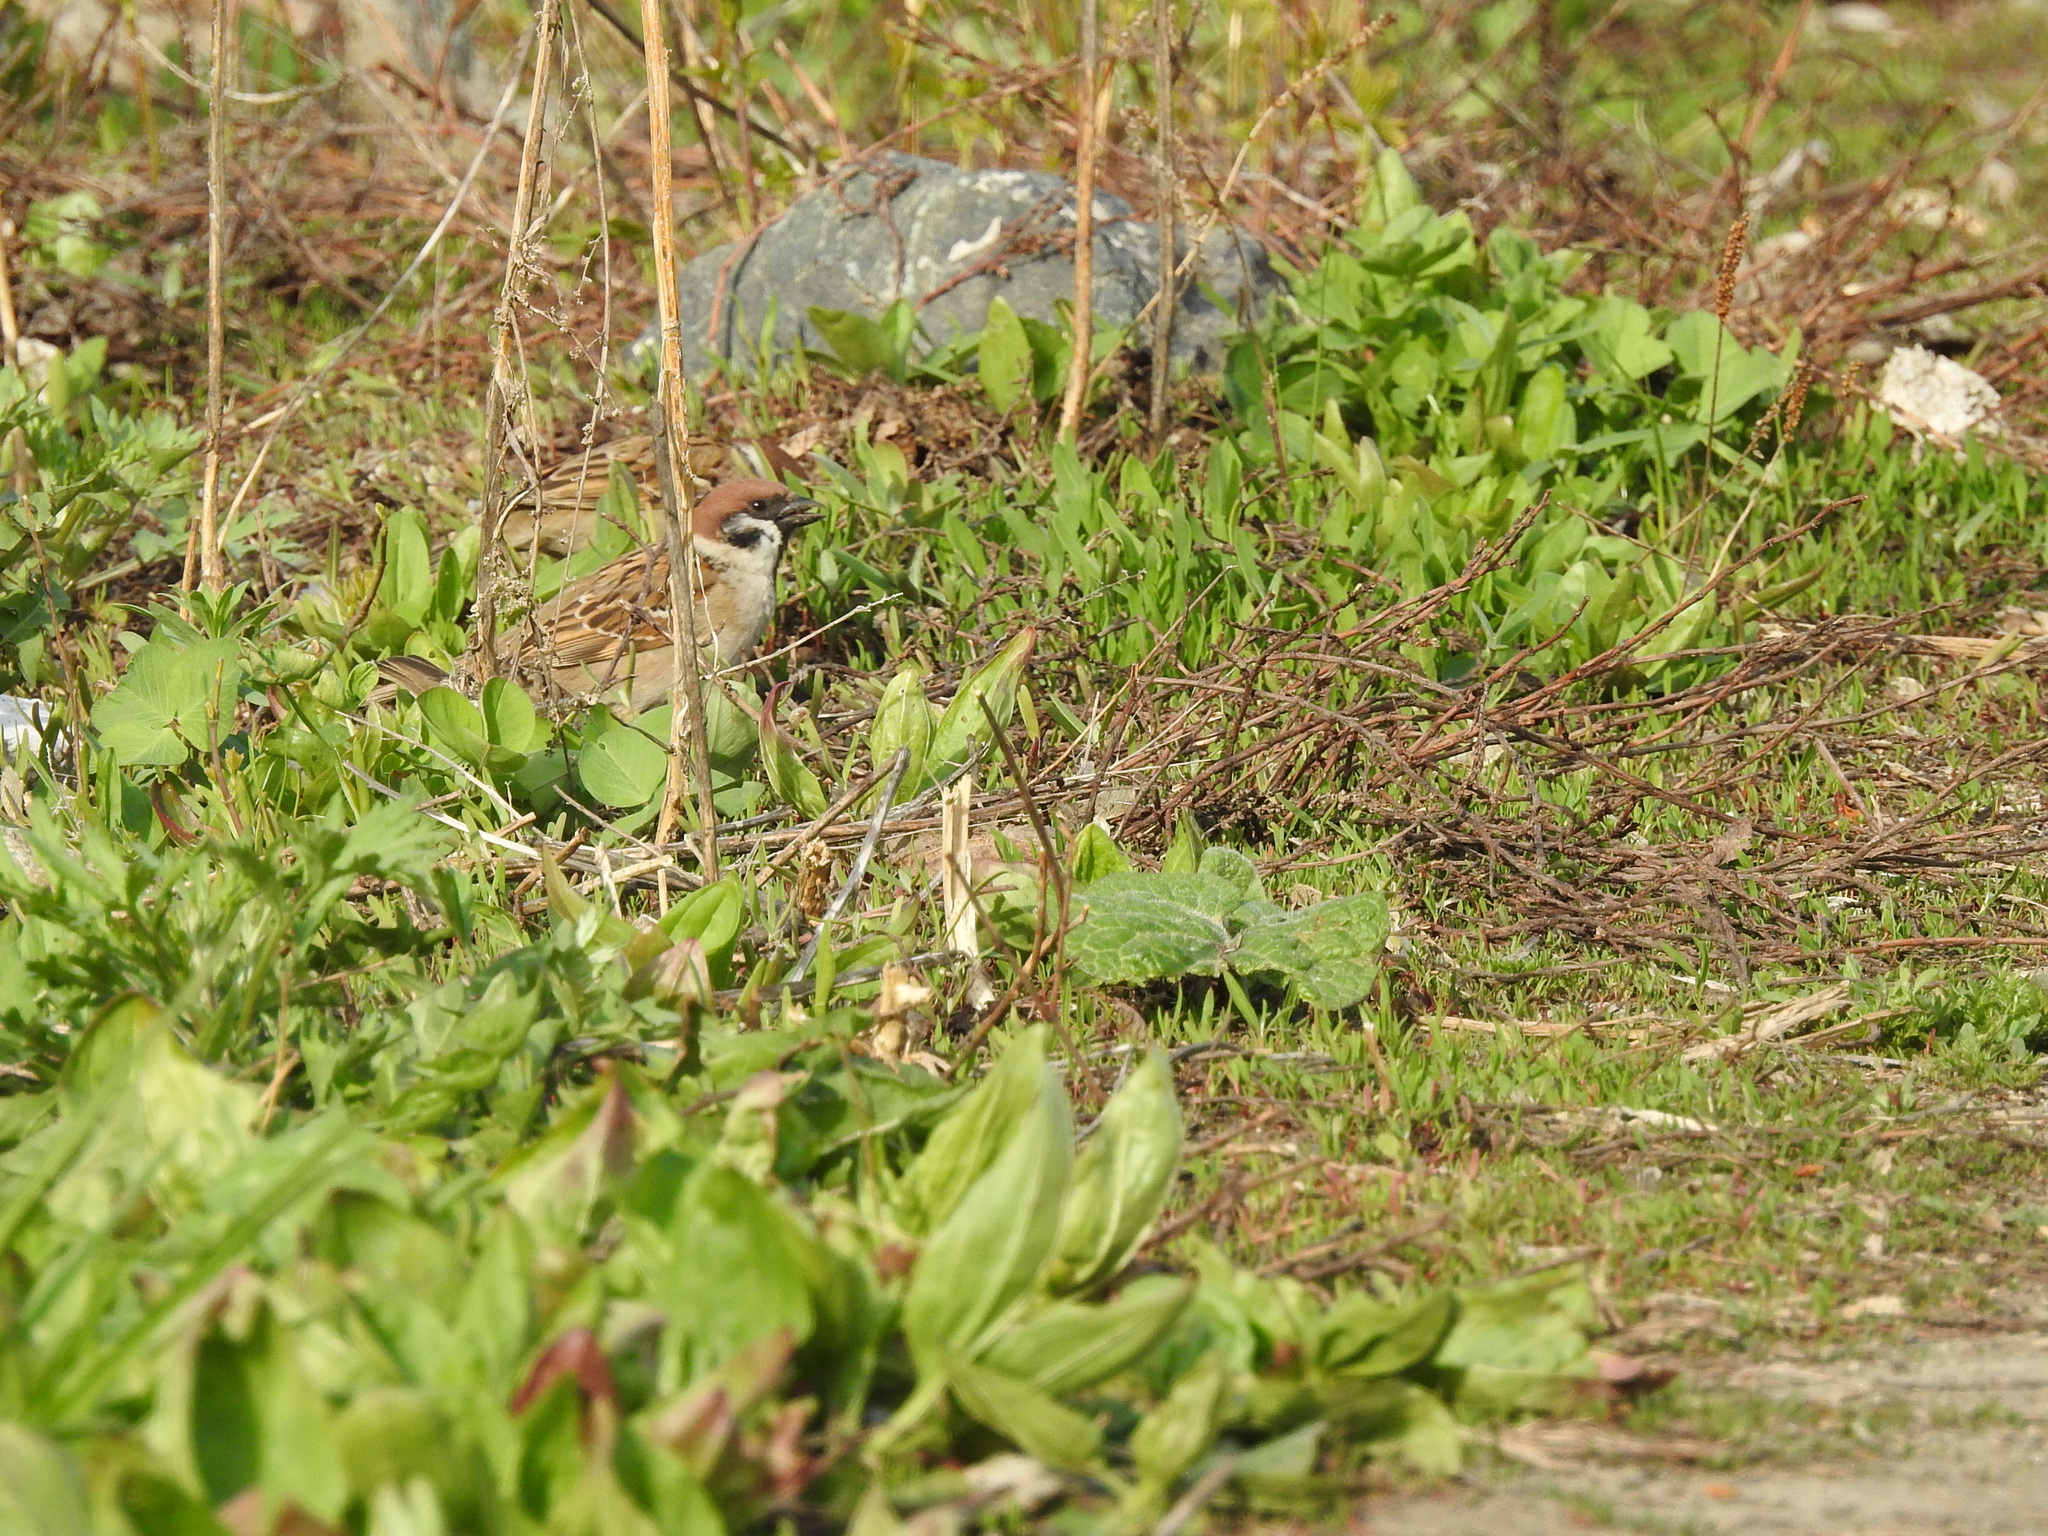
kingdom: Animalia
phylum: Chordata
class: Aves
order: Passeriformes
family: Passeridae
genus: Passer
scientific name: Passer montanus
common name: Eurasian tree sparrow
